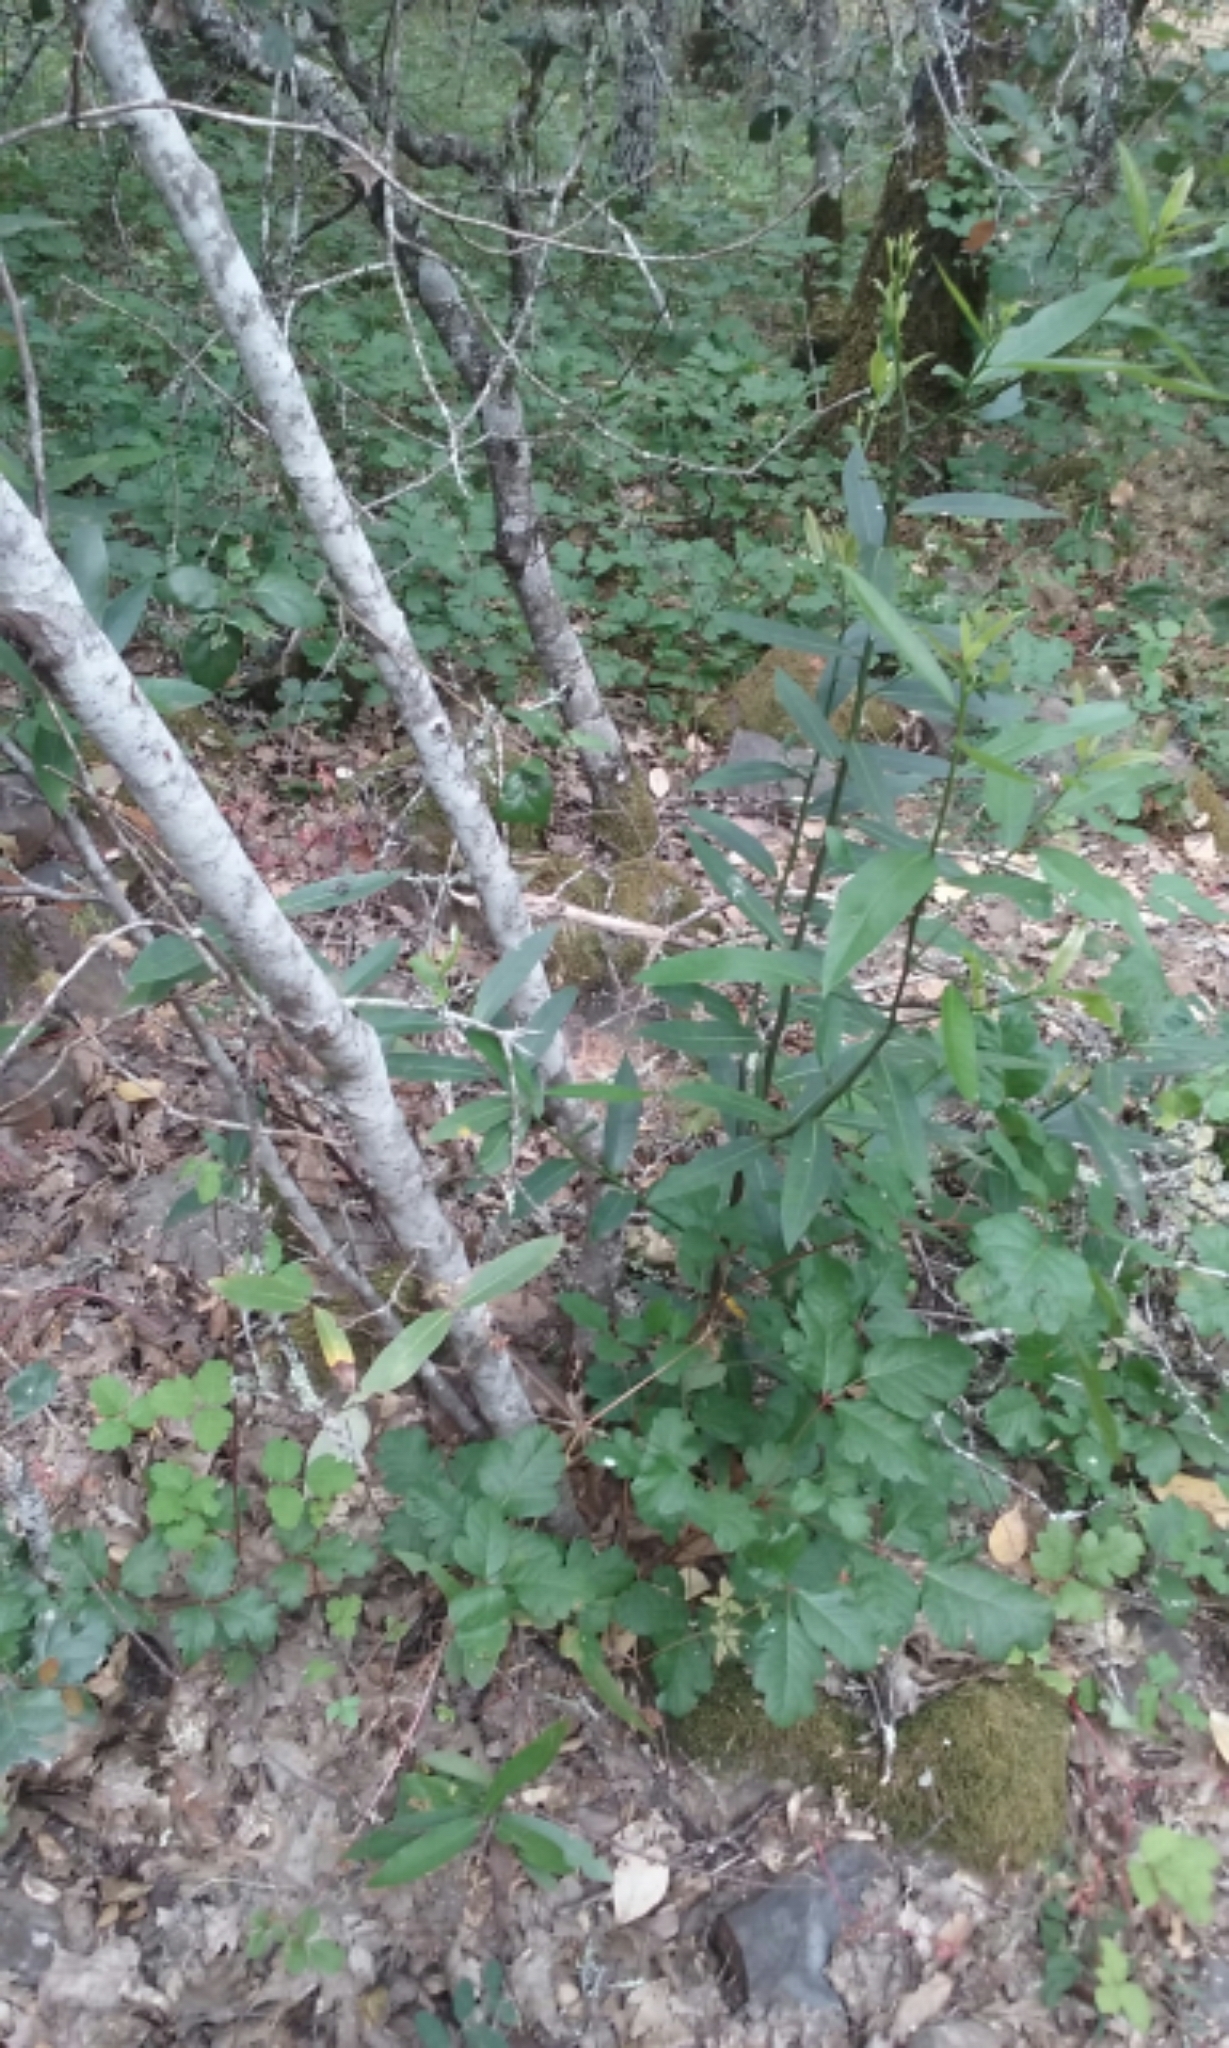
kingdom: Plantae
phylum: Tracheophyta
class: Magnoliopsida
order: Laurales
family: Lauraceae
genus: Umbellularia
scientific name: Umbellularia californica
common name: California bay
